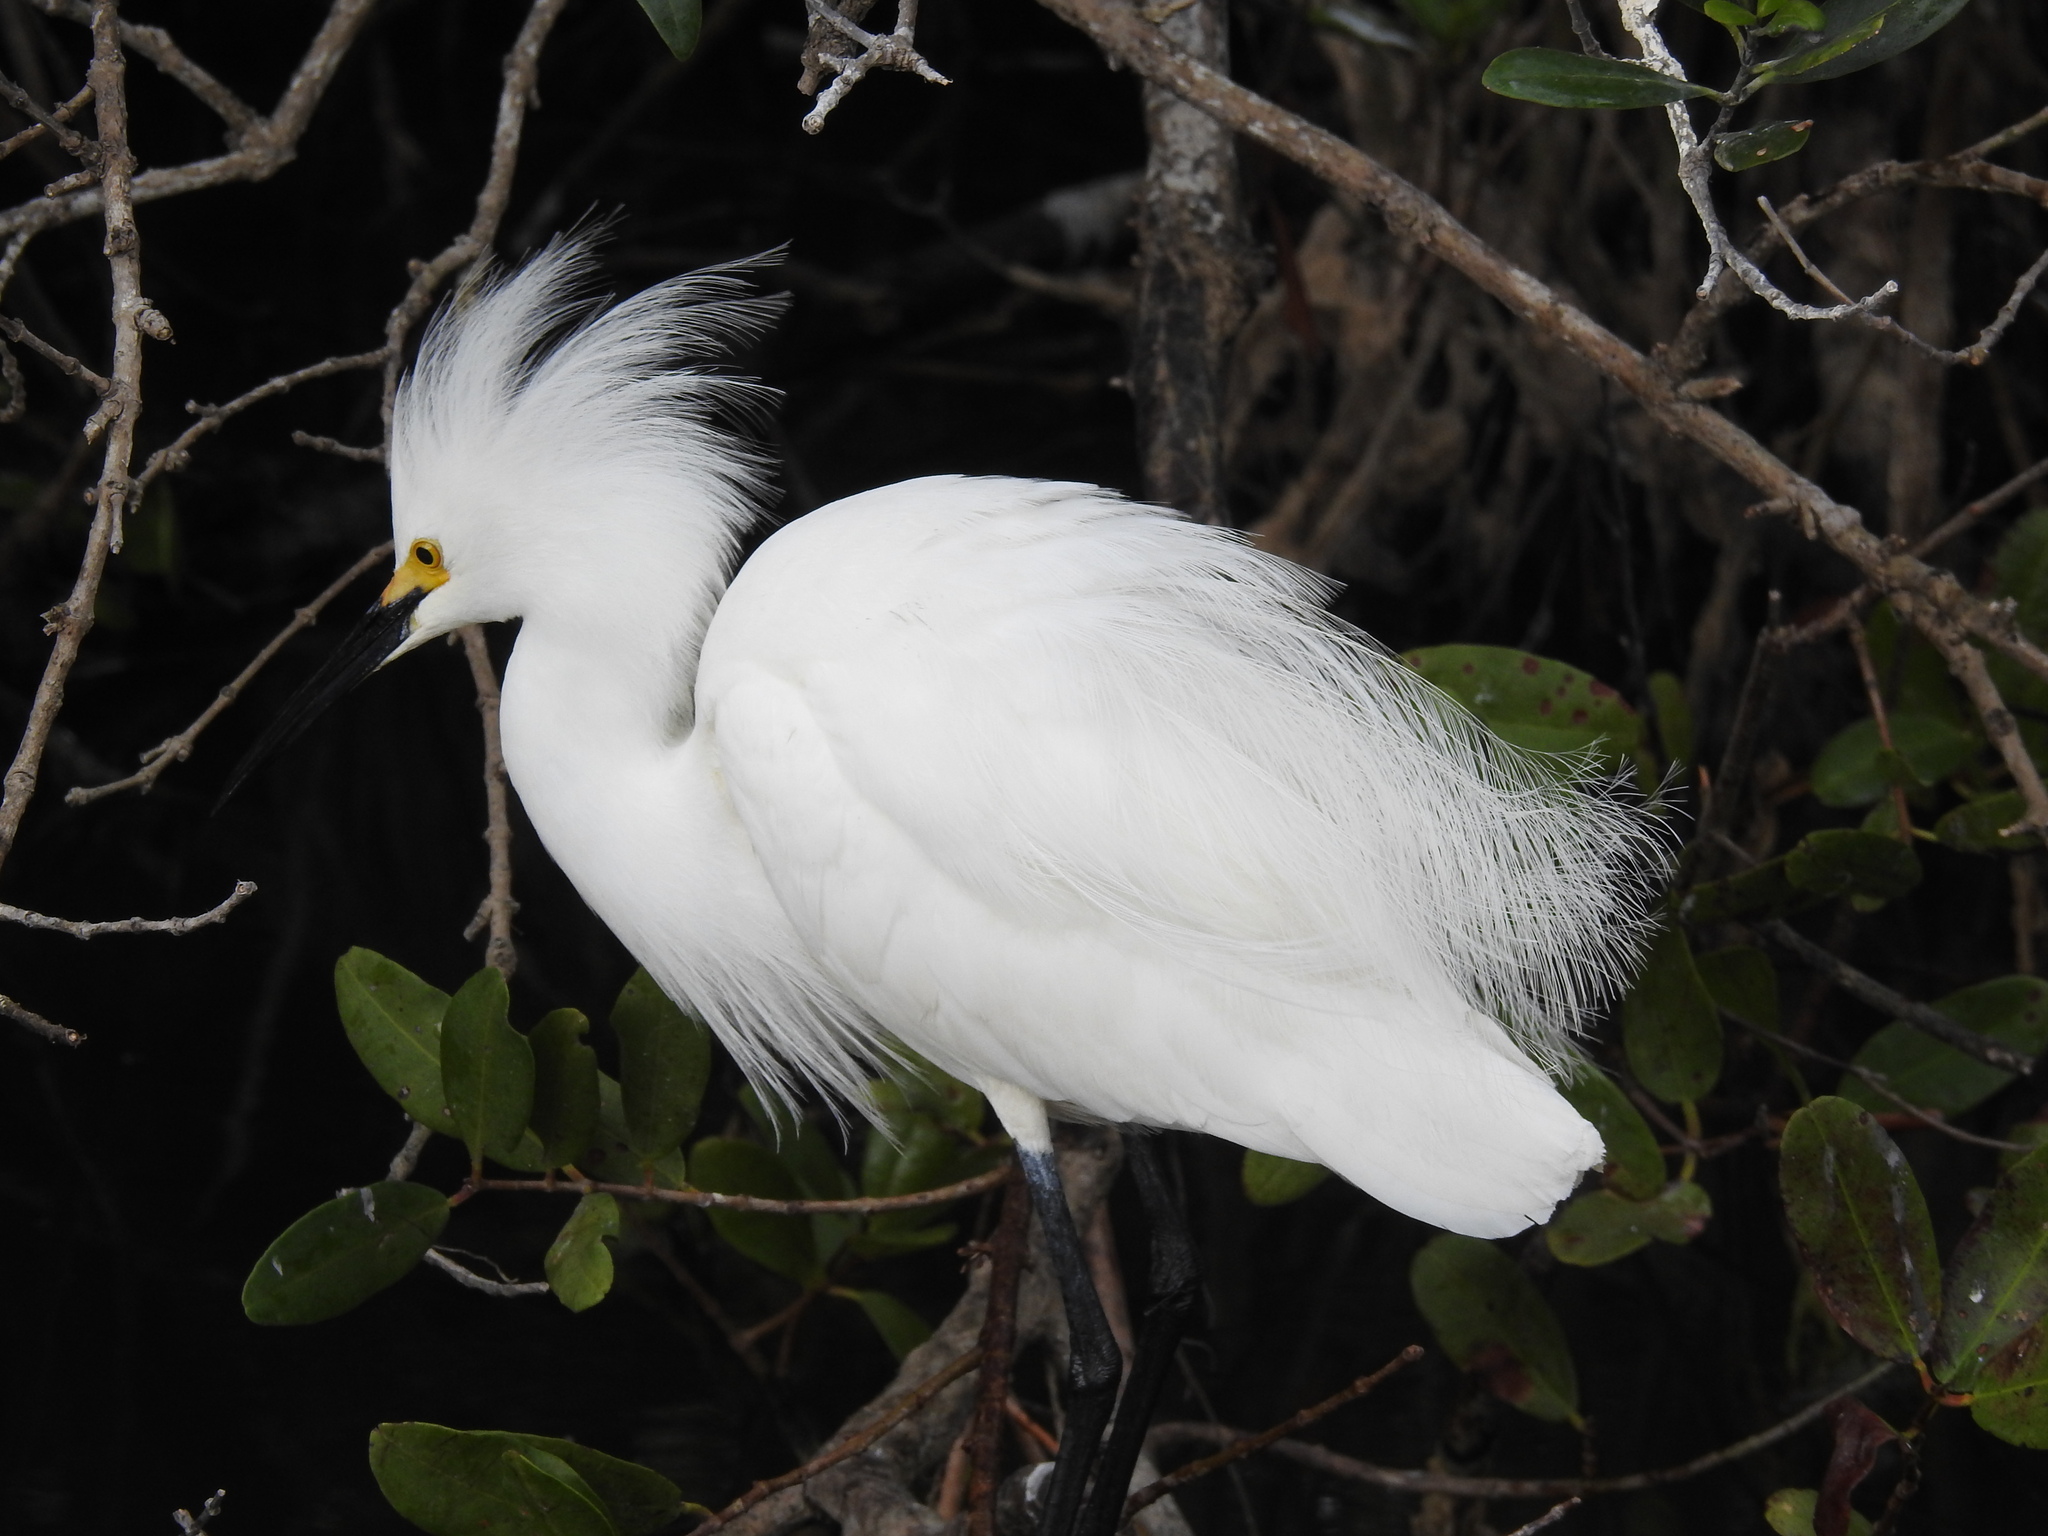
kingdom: Animalia
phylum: Chordata
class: Aves
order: Pelecaniformes
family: Ardeidae
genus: Egretta
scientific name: Egretta thula
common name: Snowy egret
